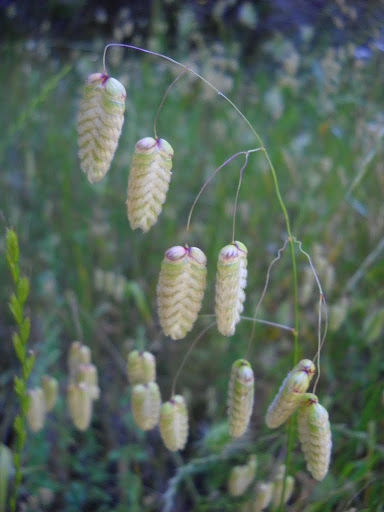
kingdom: Plantae
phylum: Tracheophyta
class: Liliopsida
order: Poales
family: Poaceae
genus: Briza
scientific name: Briza maxima
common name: Big quakinggrass
